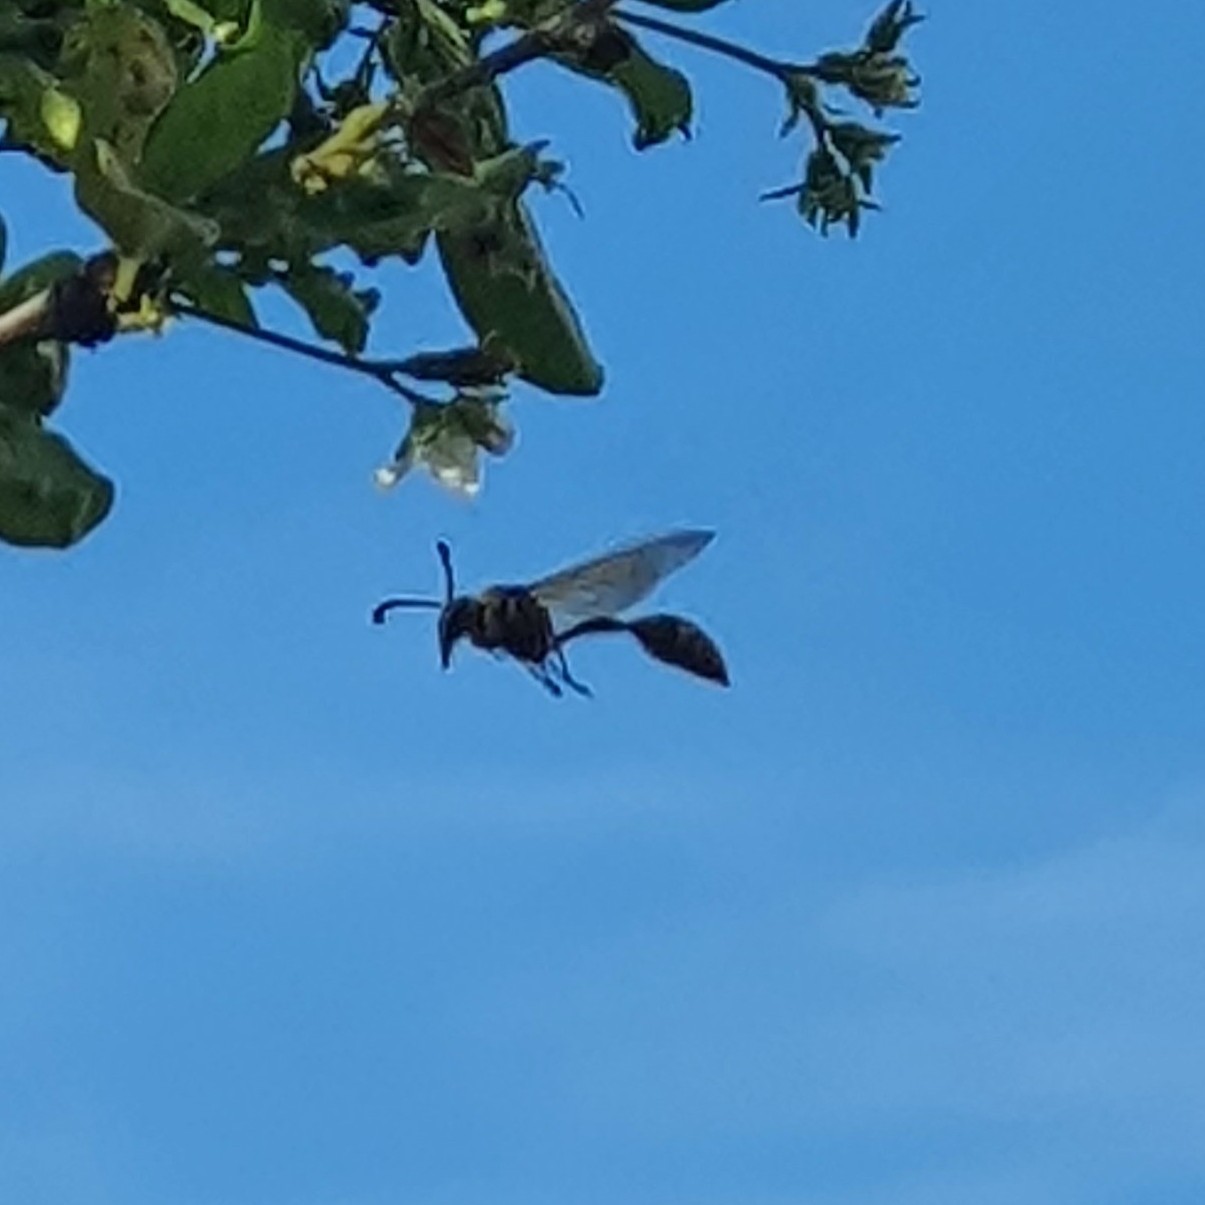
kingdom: Animalia
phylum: Arthropoda
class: Insecta
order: Hymenoptera
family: Eumenidae
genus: Delta
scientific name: Delta campaniforme
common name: Yellow and black potter wasp
